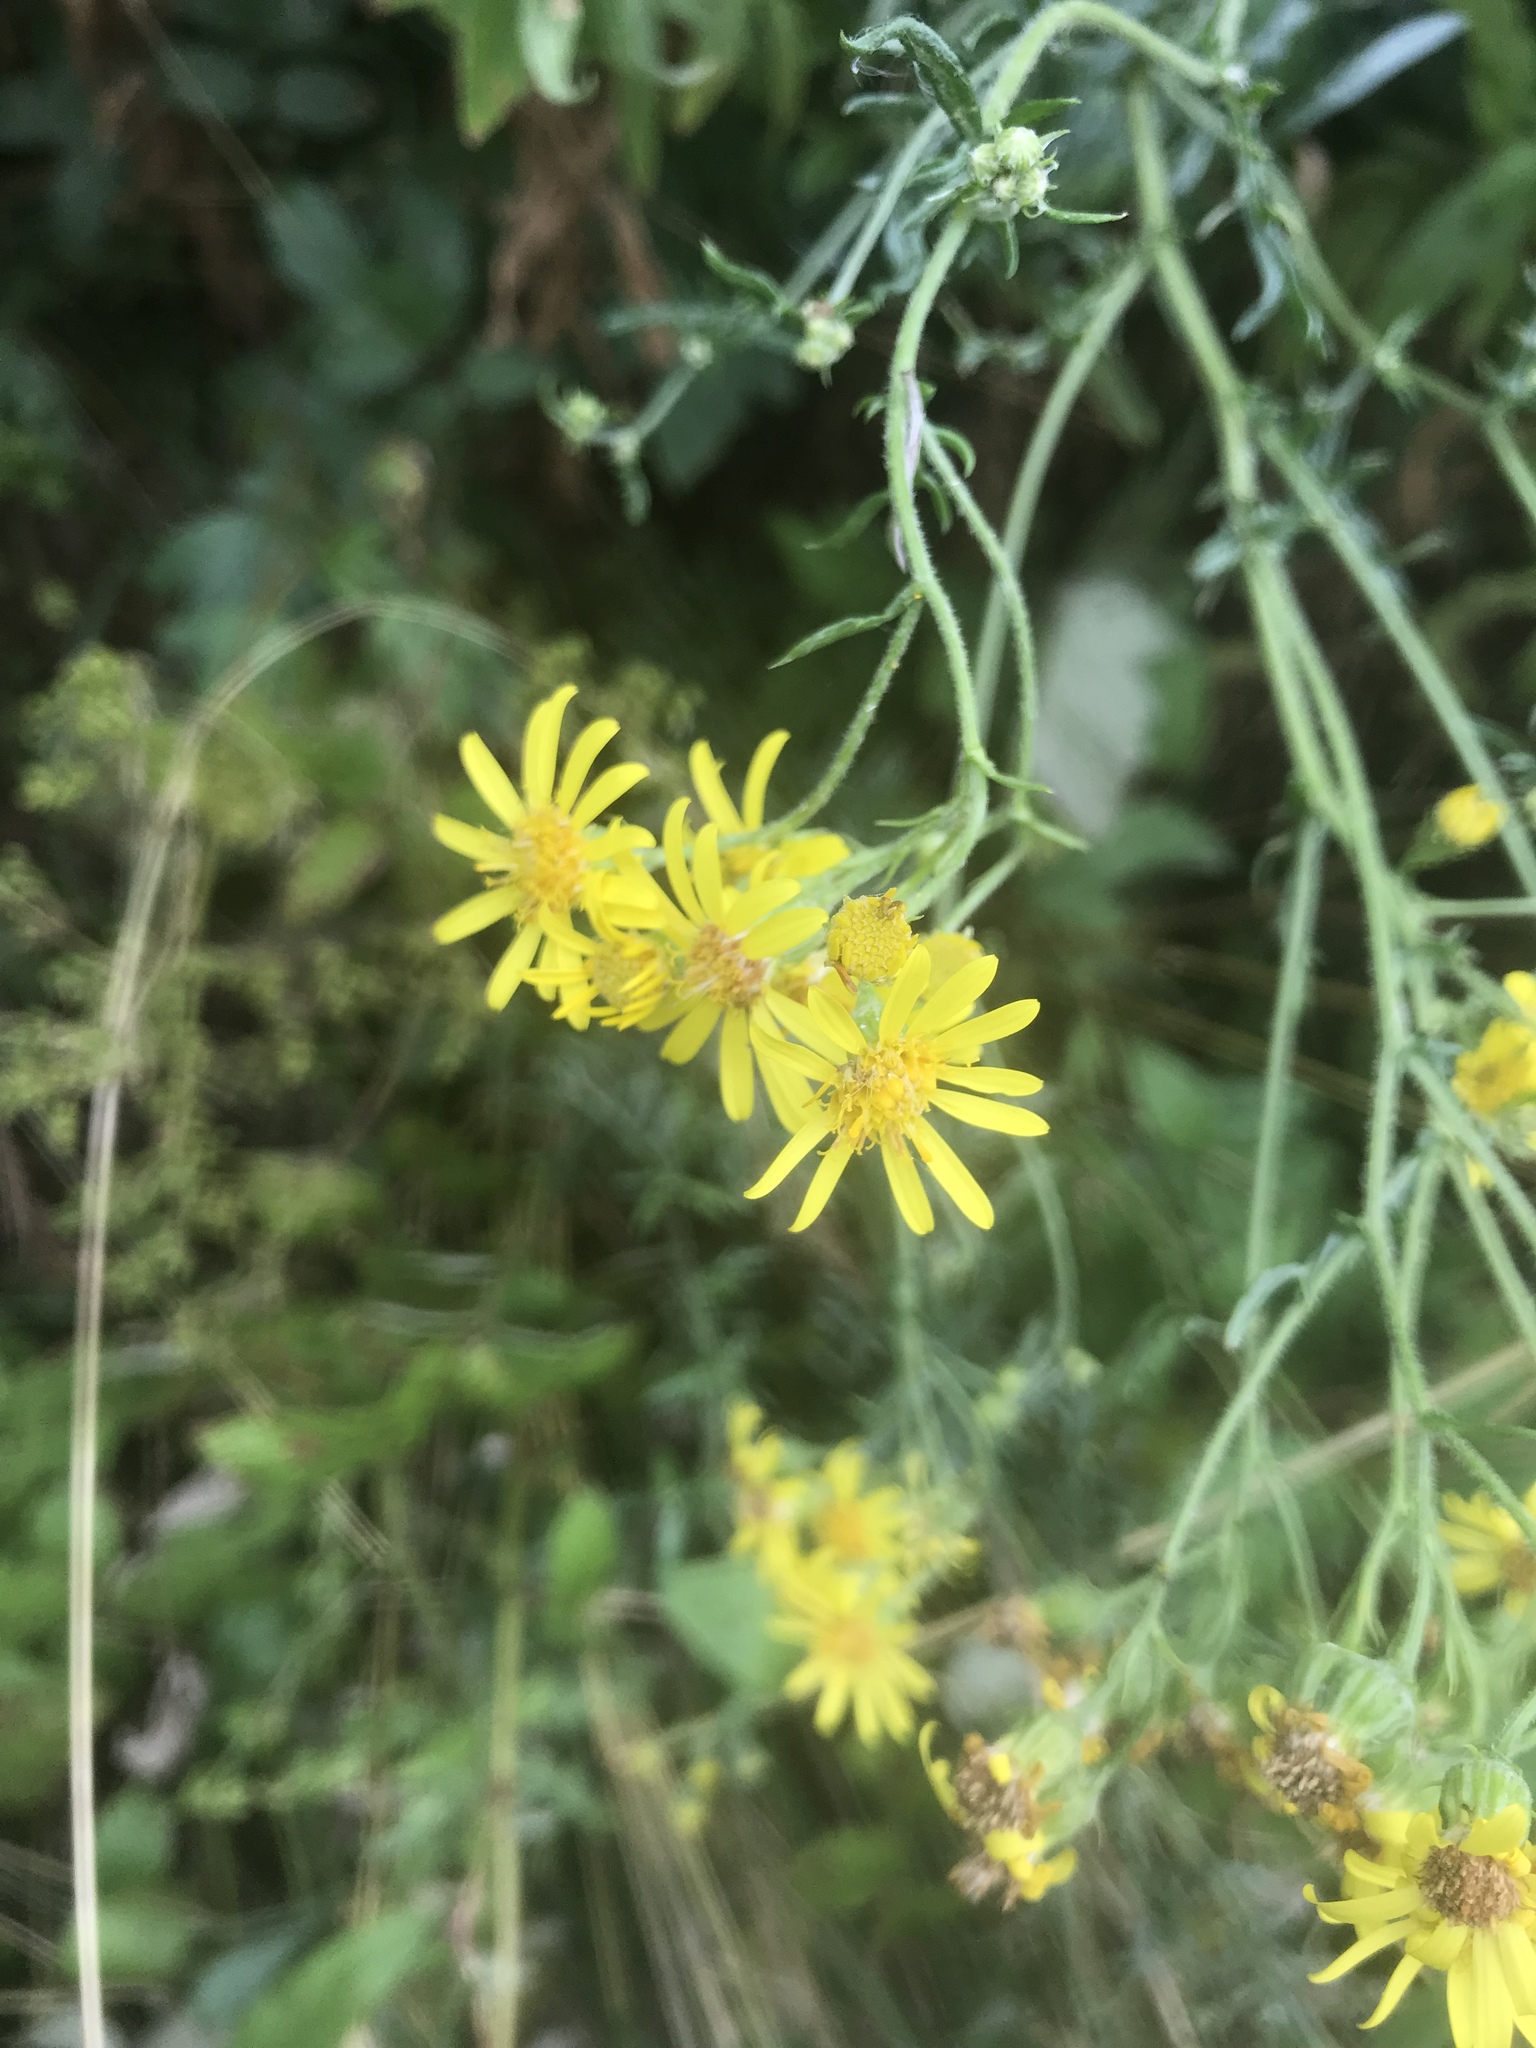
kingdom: Plantae
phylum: Tracheophyta
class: Magnoliopsida
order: Asterales
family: Asteraceae
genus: Jacobaea
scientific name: Jacobaea erucifolia
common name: Hoary ragwort
